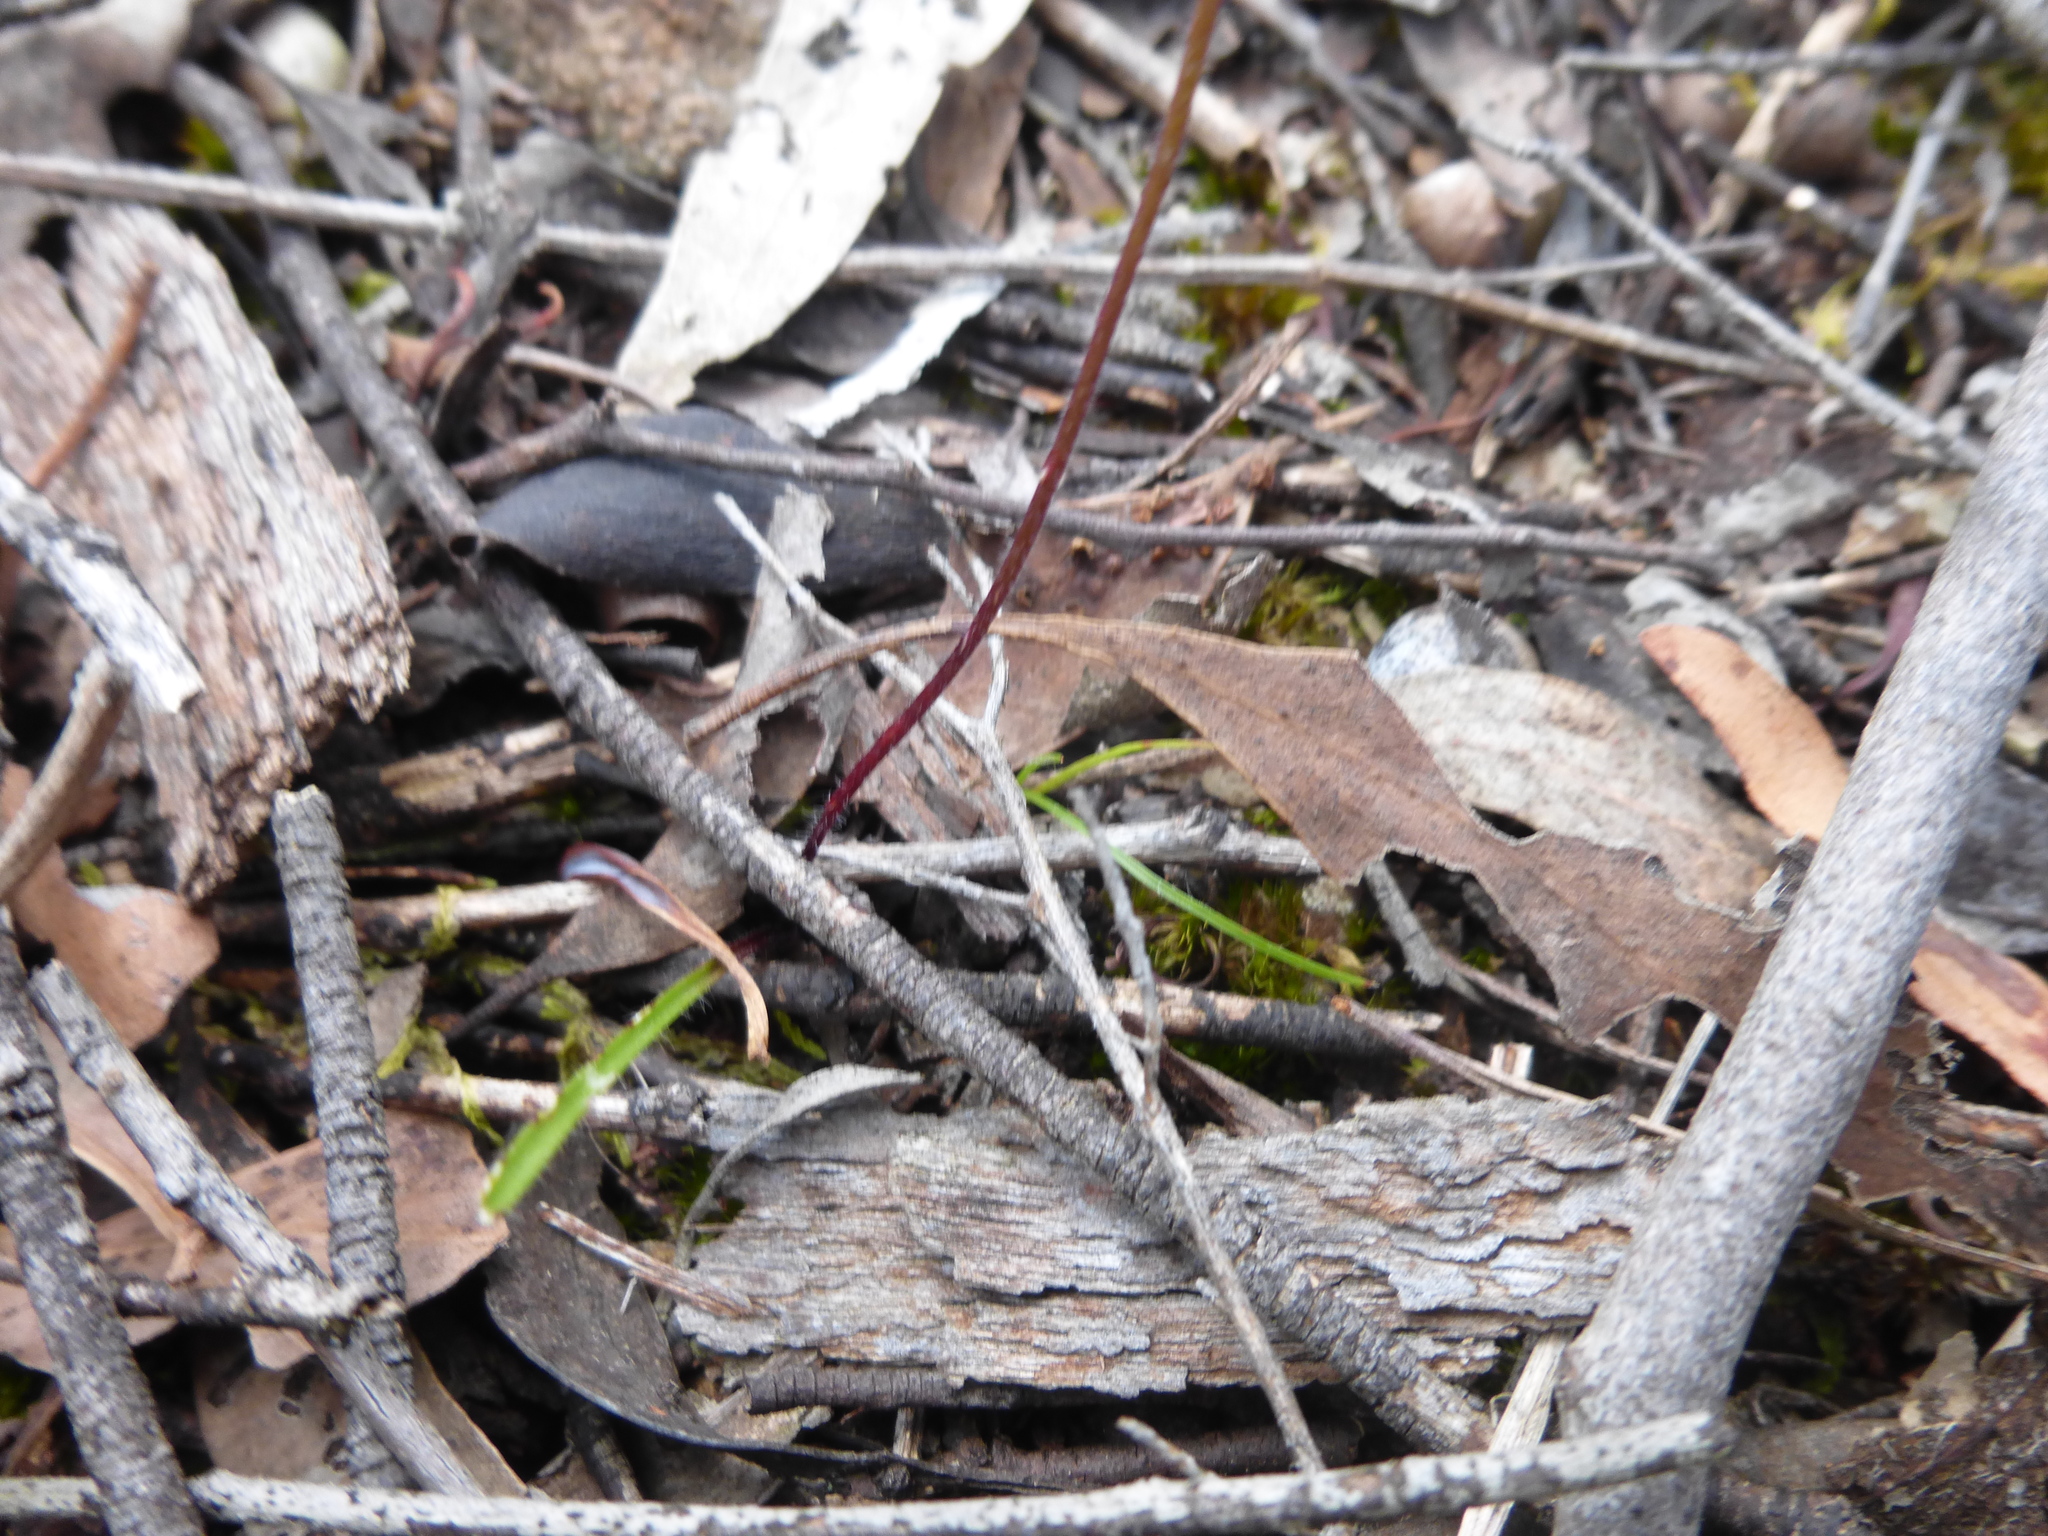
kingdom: Plantae
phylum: Tracheophyta
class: Liliopsida
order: Asparagales
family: Orchidaceae
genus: Caladenia
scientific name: Caladenia moschata
